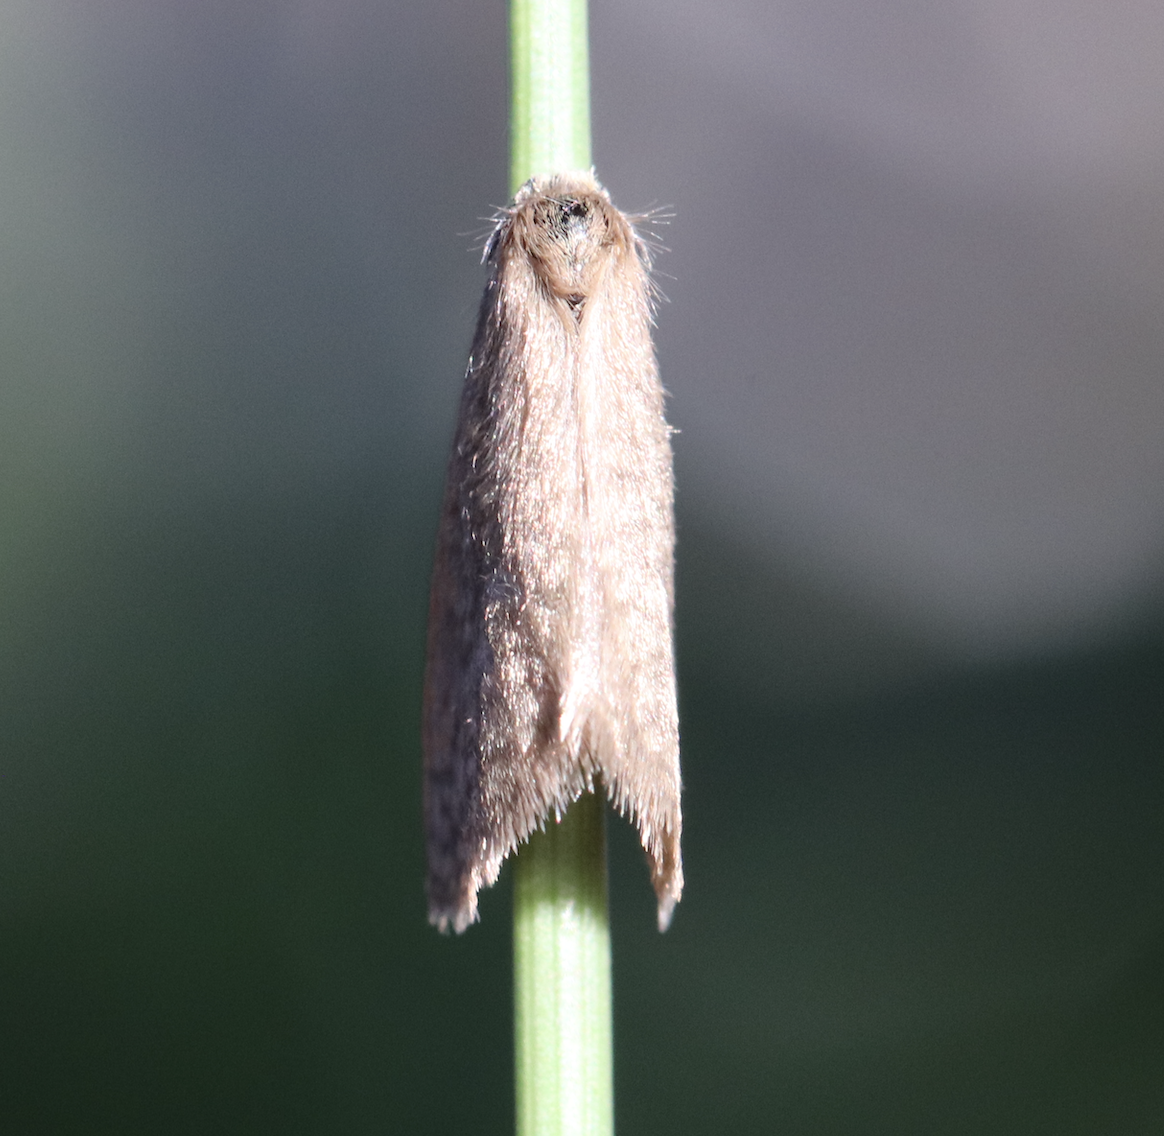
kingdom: Animalia
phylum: Arthropoda
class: Insecta
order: Lepidoptera
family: Psychidae
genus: Bijugis
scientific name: Bijugis bombycella
